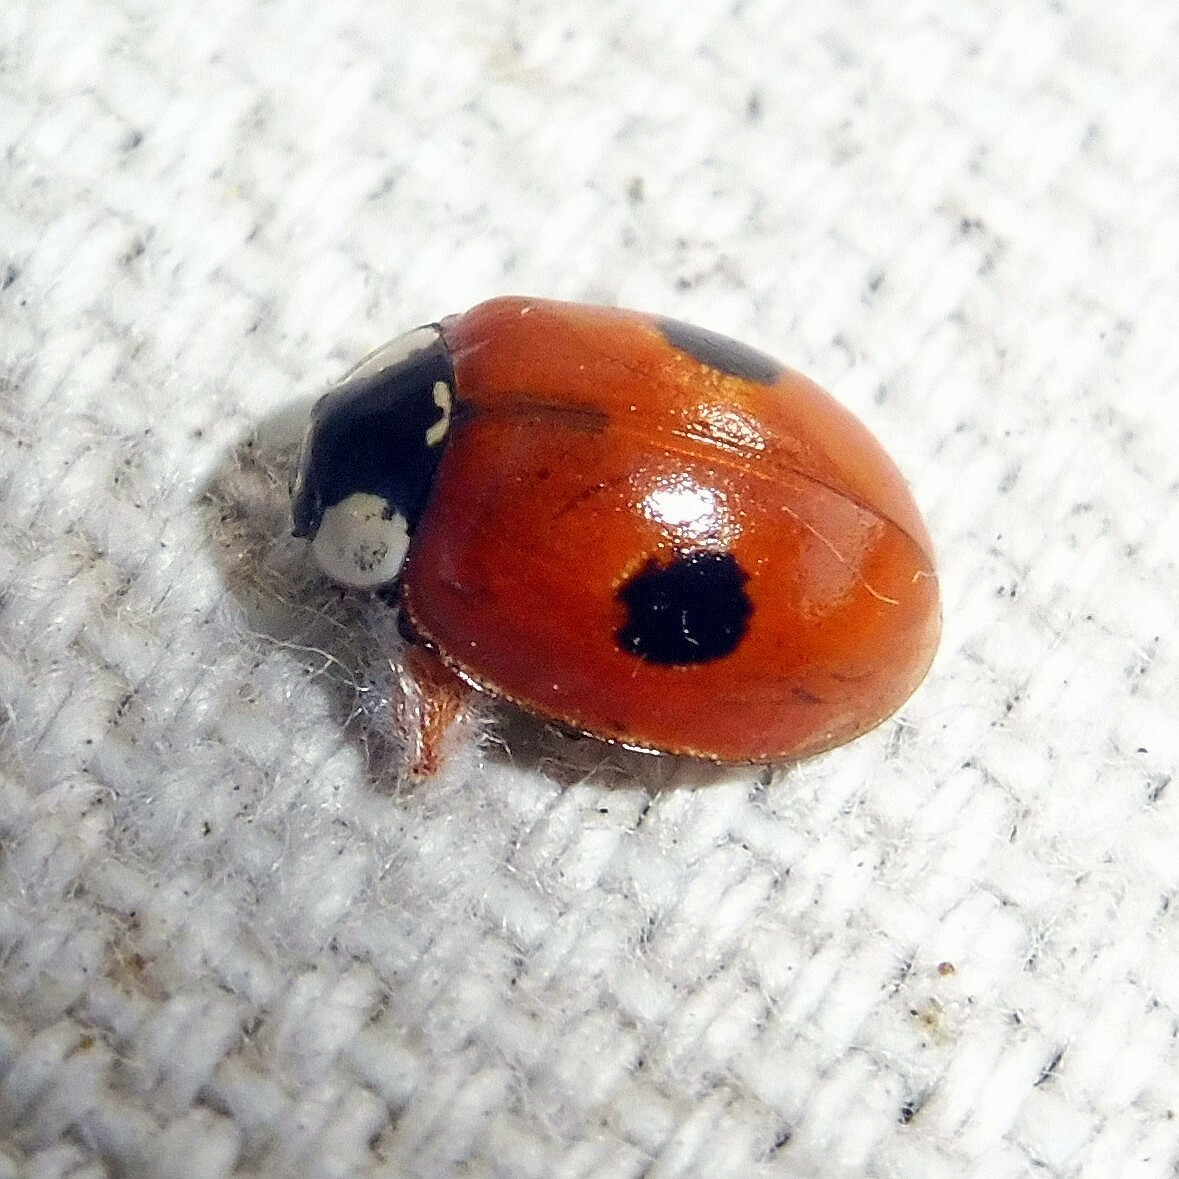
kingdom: Animalia
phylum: Arthropoda
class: Insecta
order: Coleoptera
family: Coccinellidae
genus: Adalia
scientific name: Adalia bipunctata
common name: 2-spot ladybird
